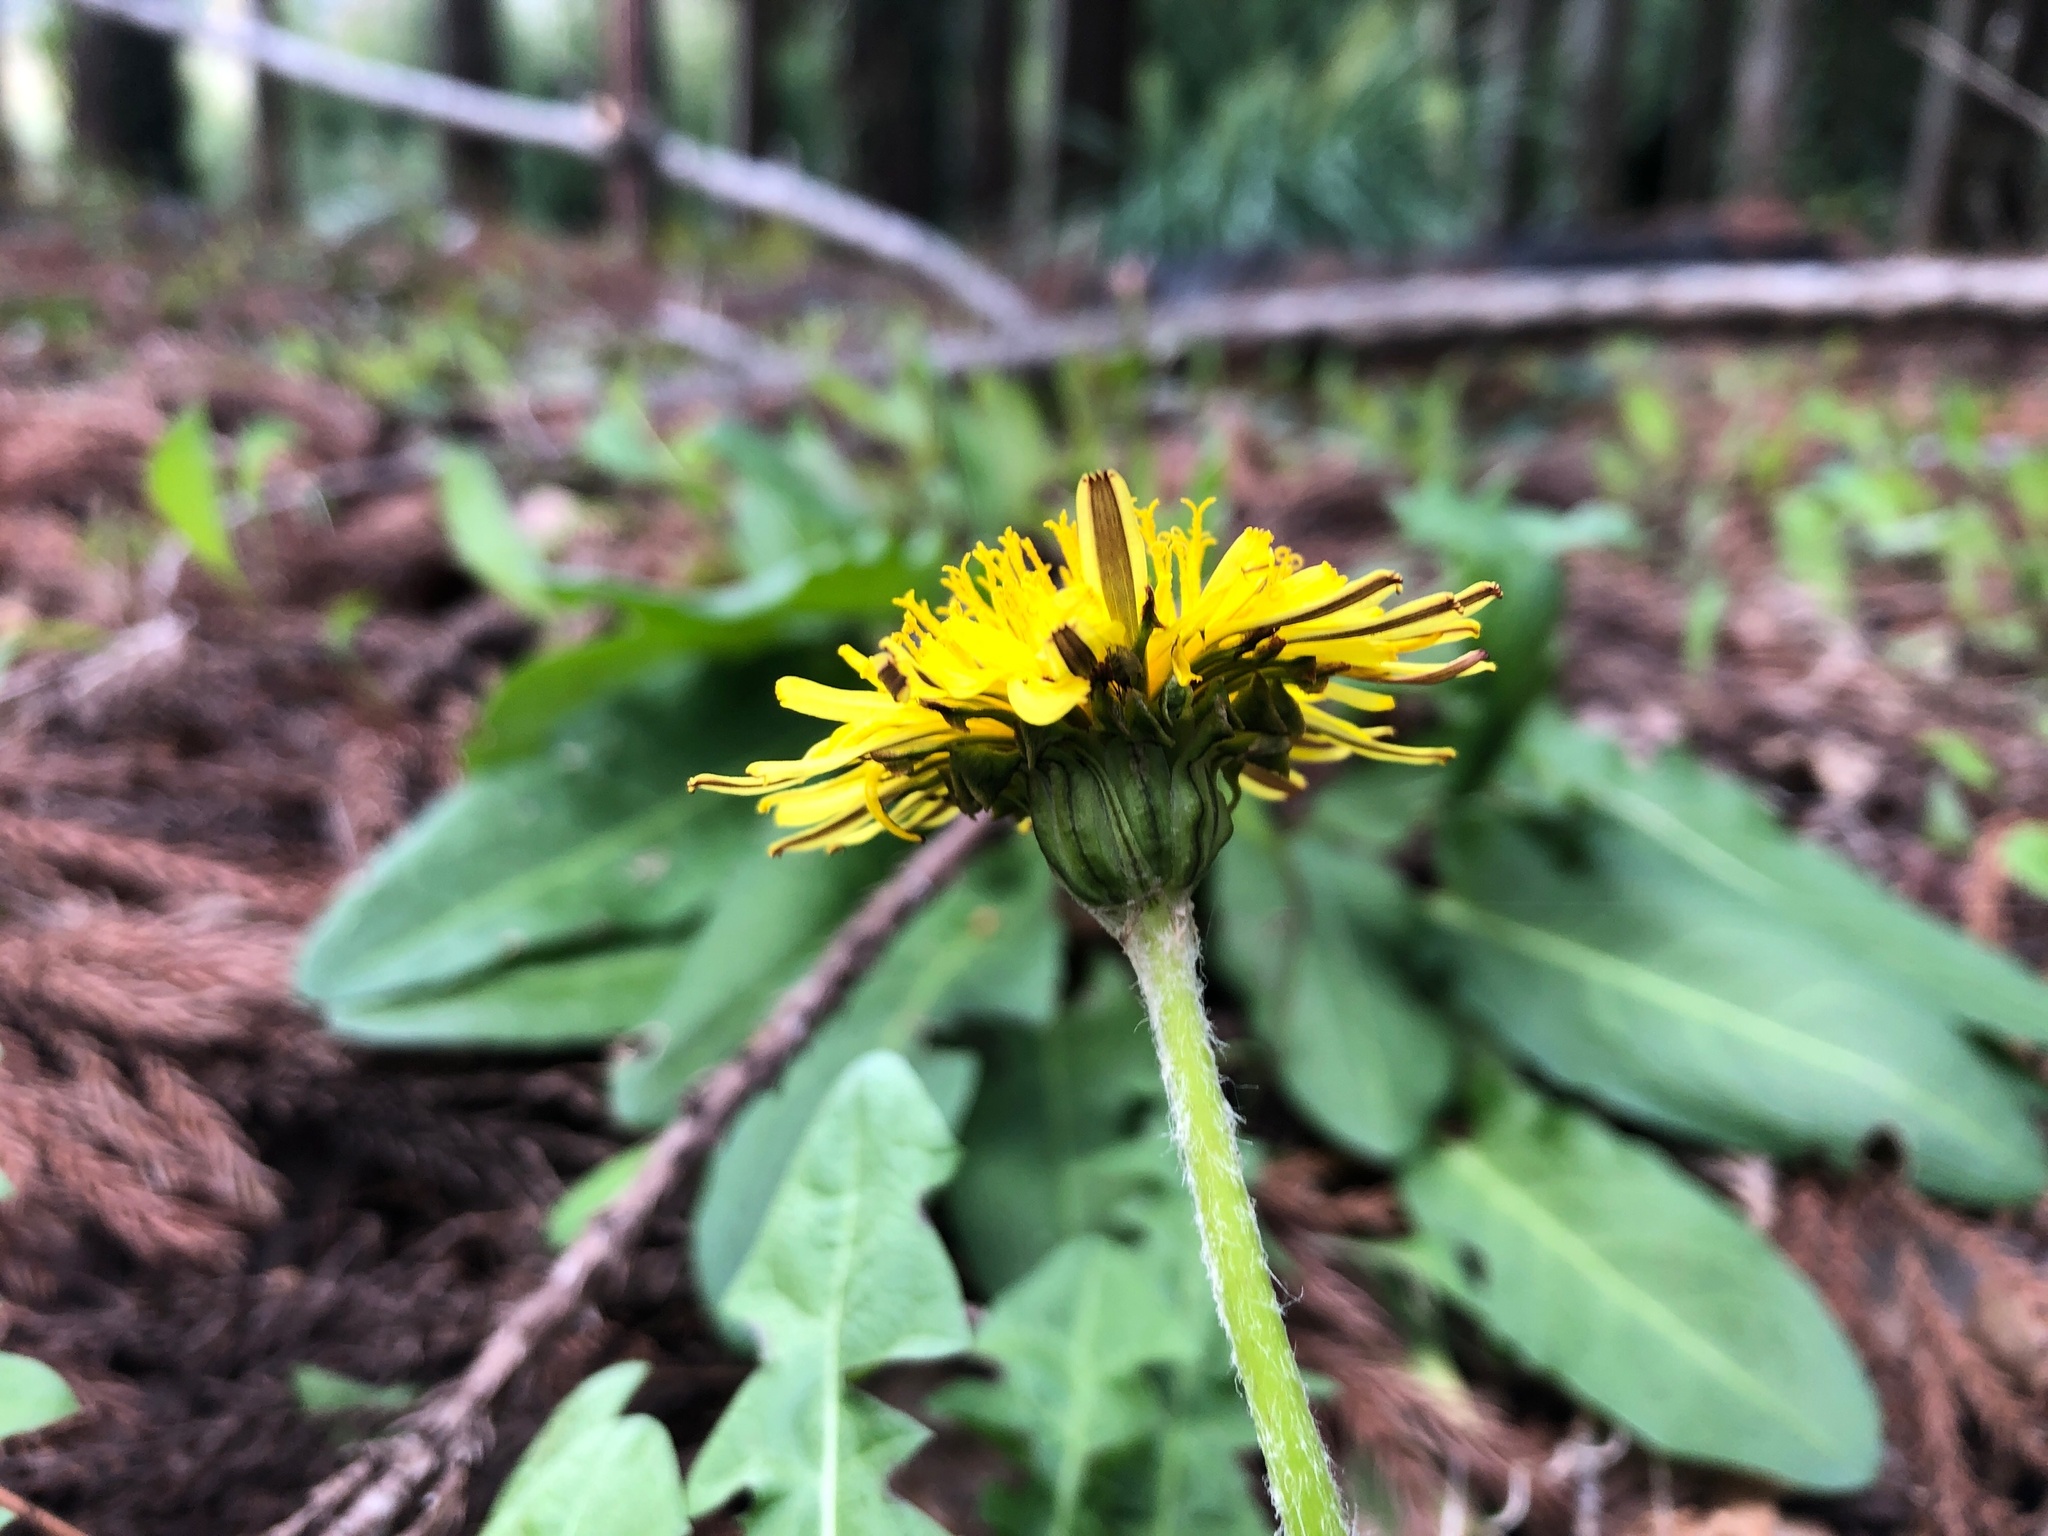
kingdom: Plantae
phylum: Tracheophyta
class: Magnoliopsida
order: Asterales
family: Asteraceae
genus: Taraxacum
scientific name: Taraxacum platycarpum
